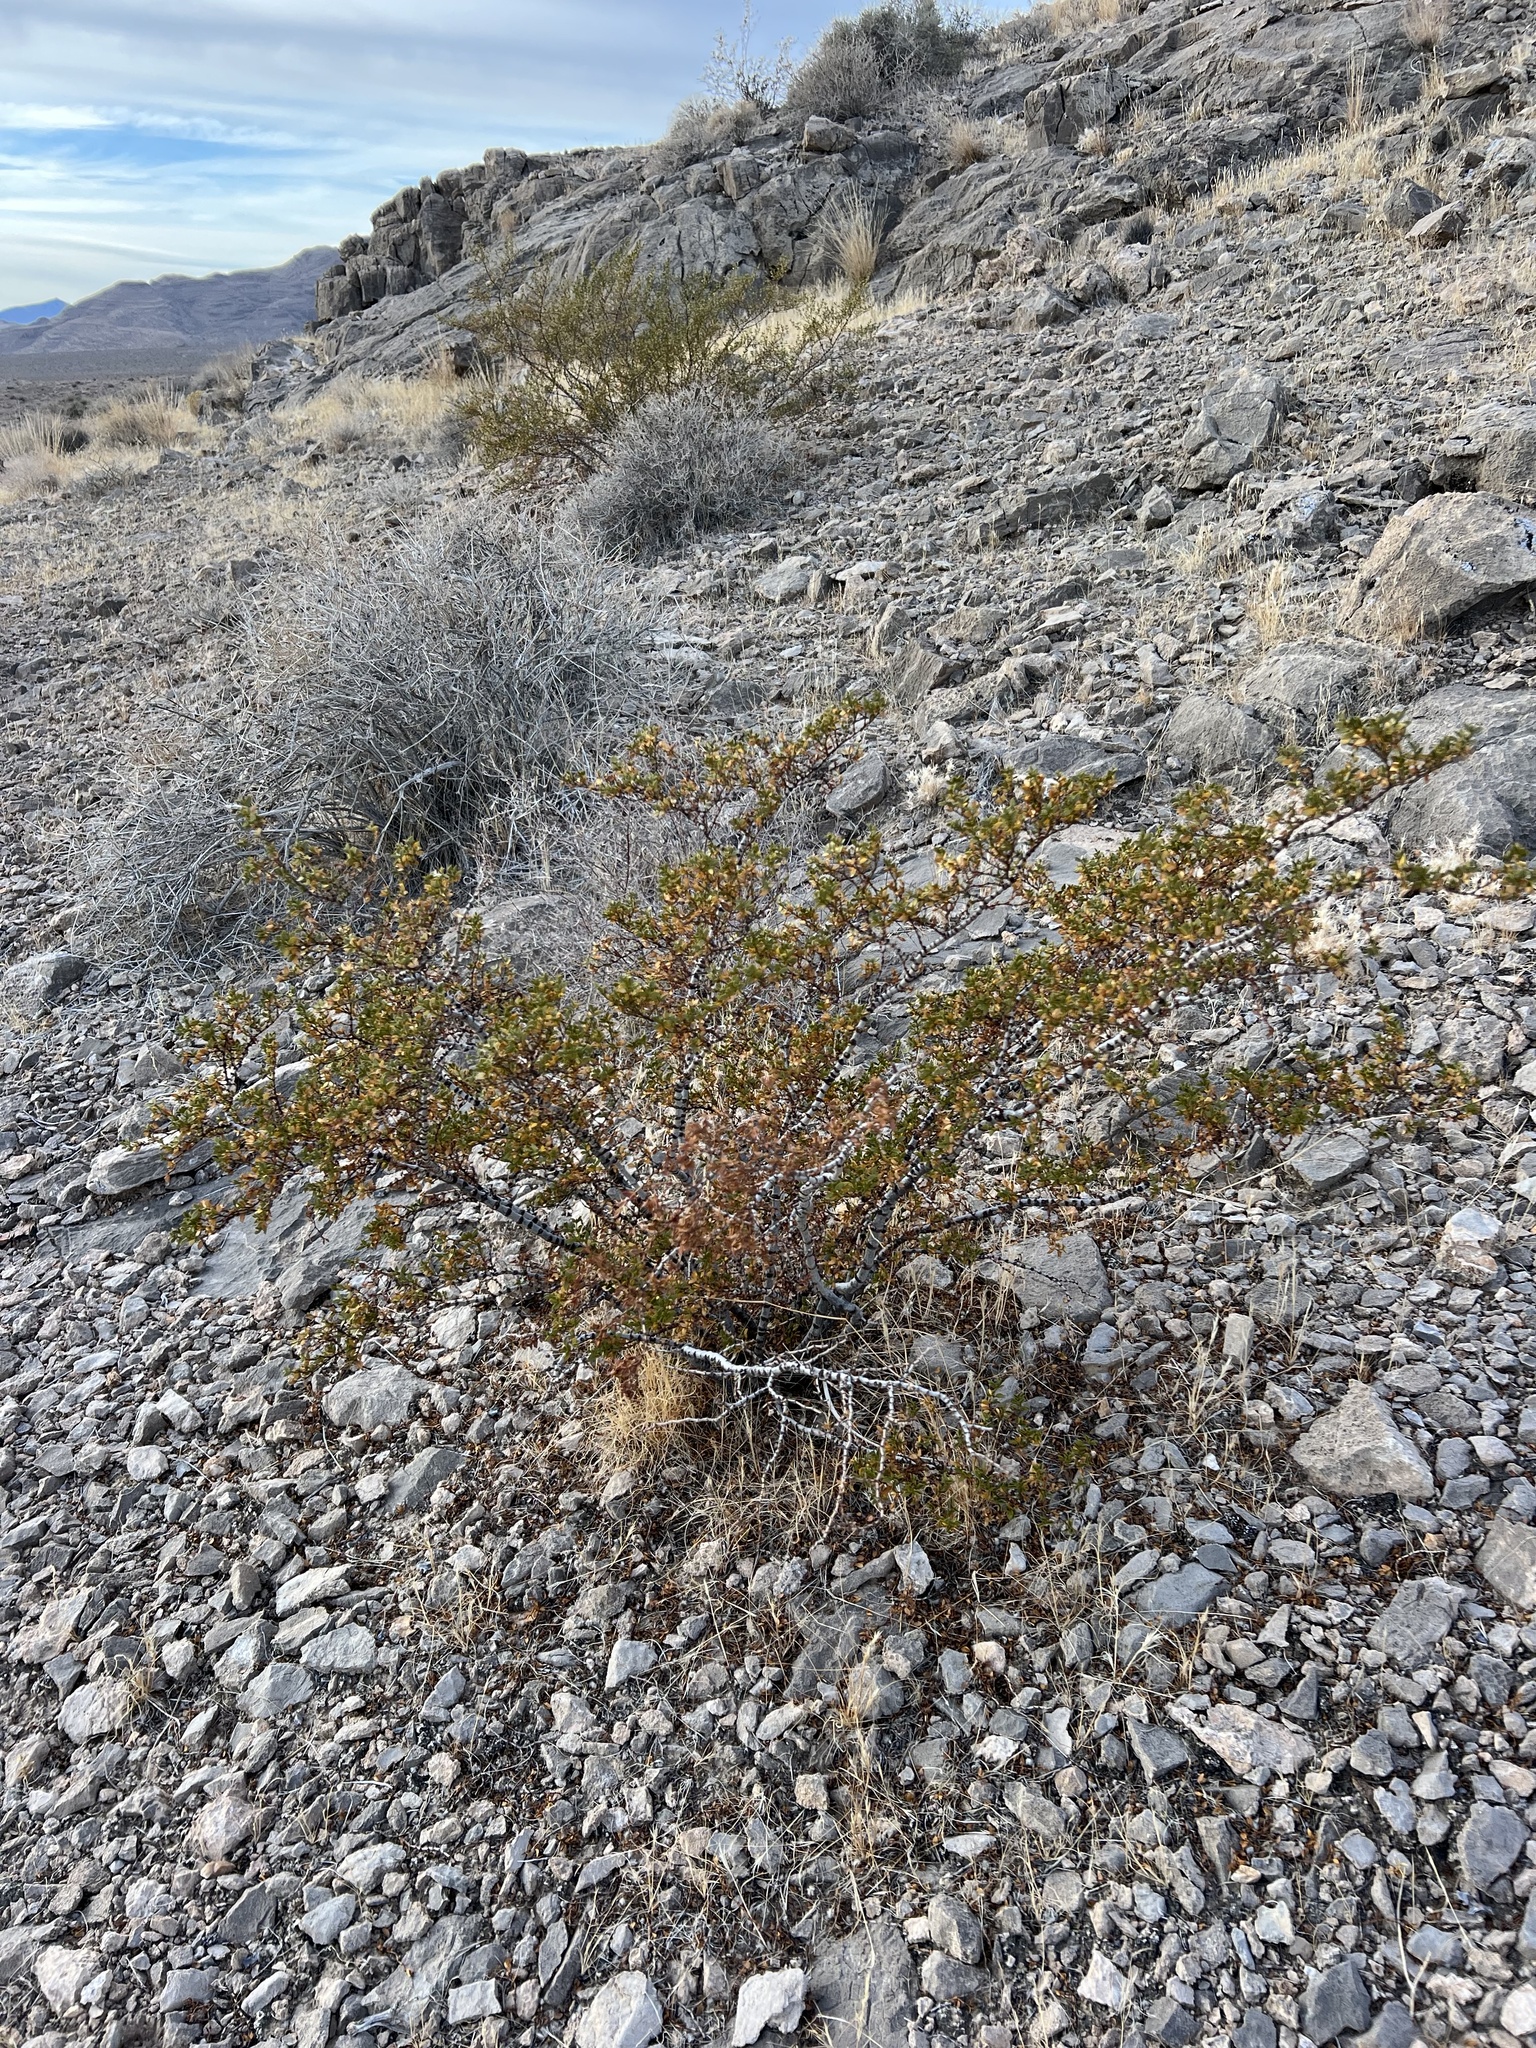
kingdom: Plantae
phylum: Tracheophyta
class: Magnoliopsida
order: Zygophyllales
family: Zygophyllaceae
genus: Larrea
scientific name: Larrea tridentata
